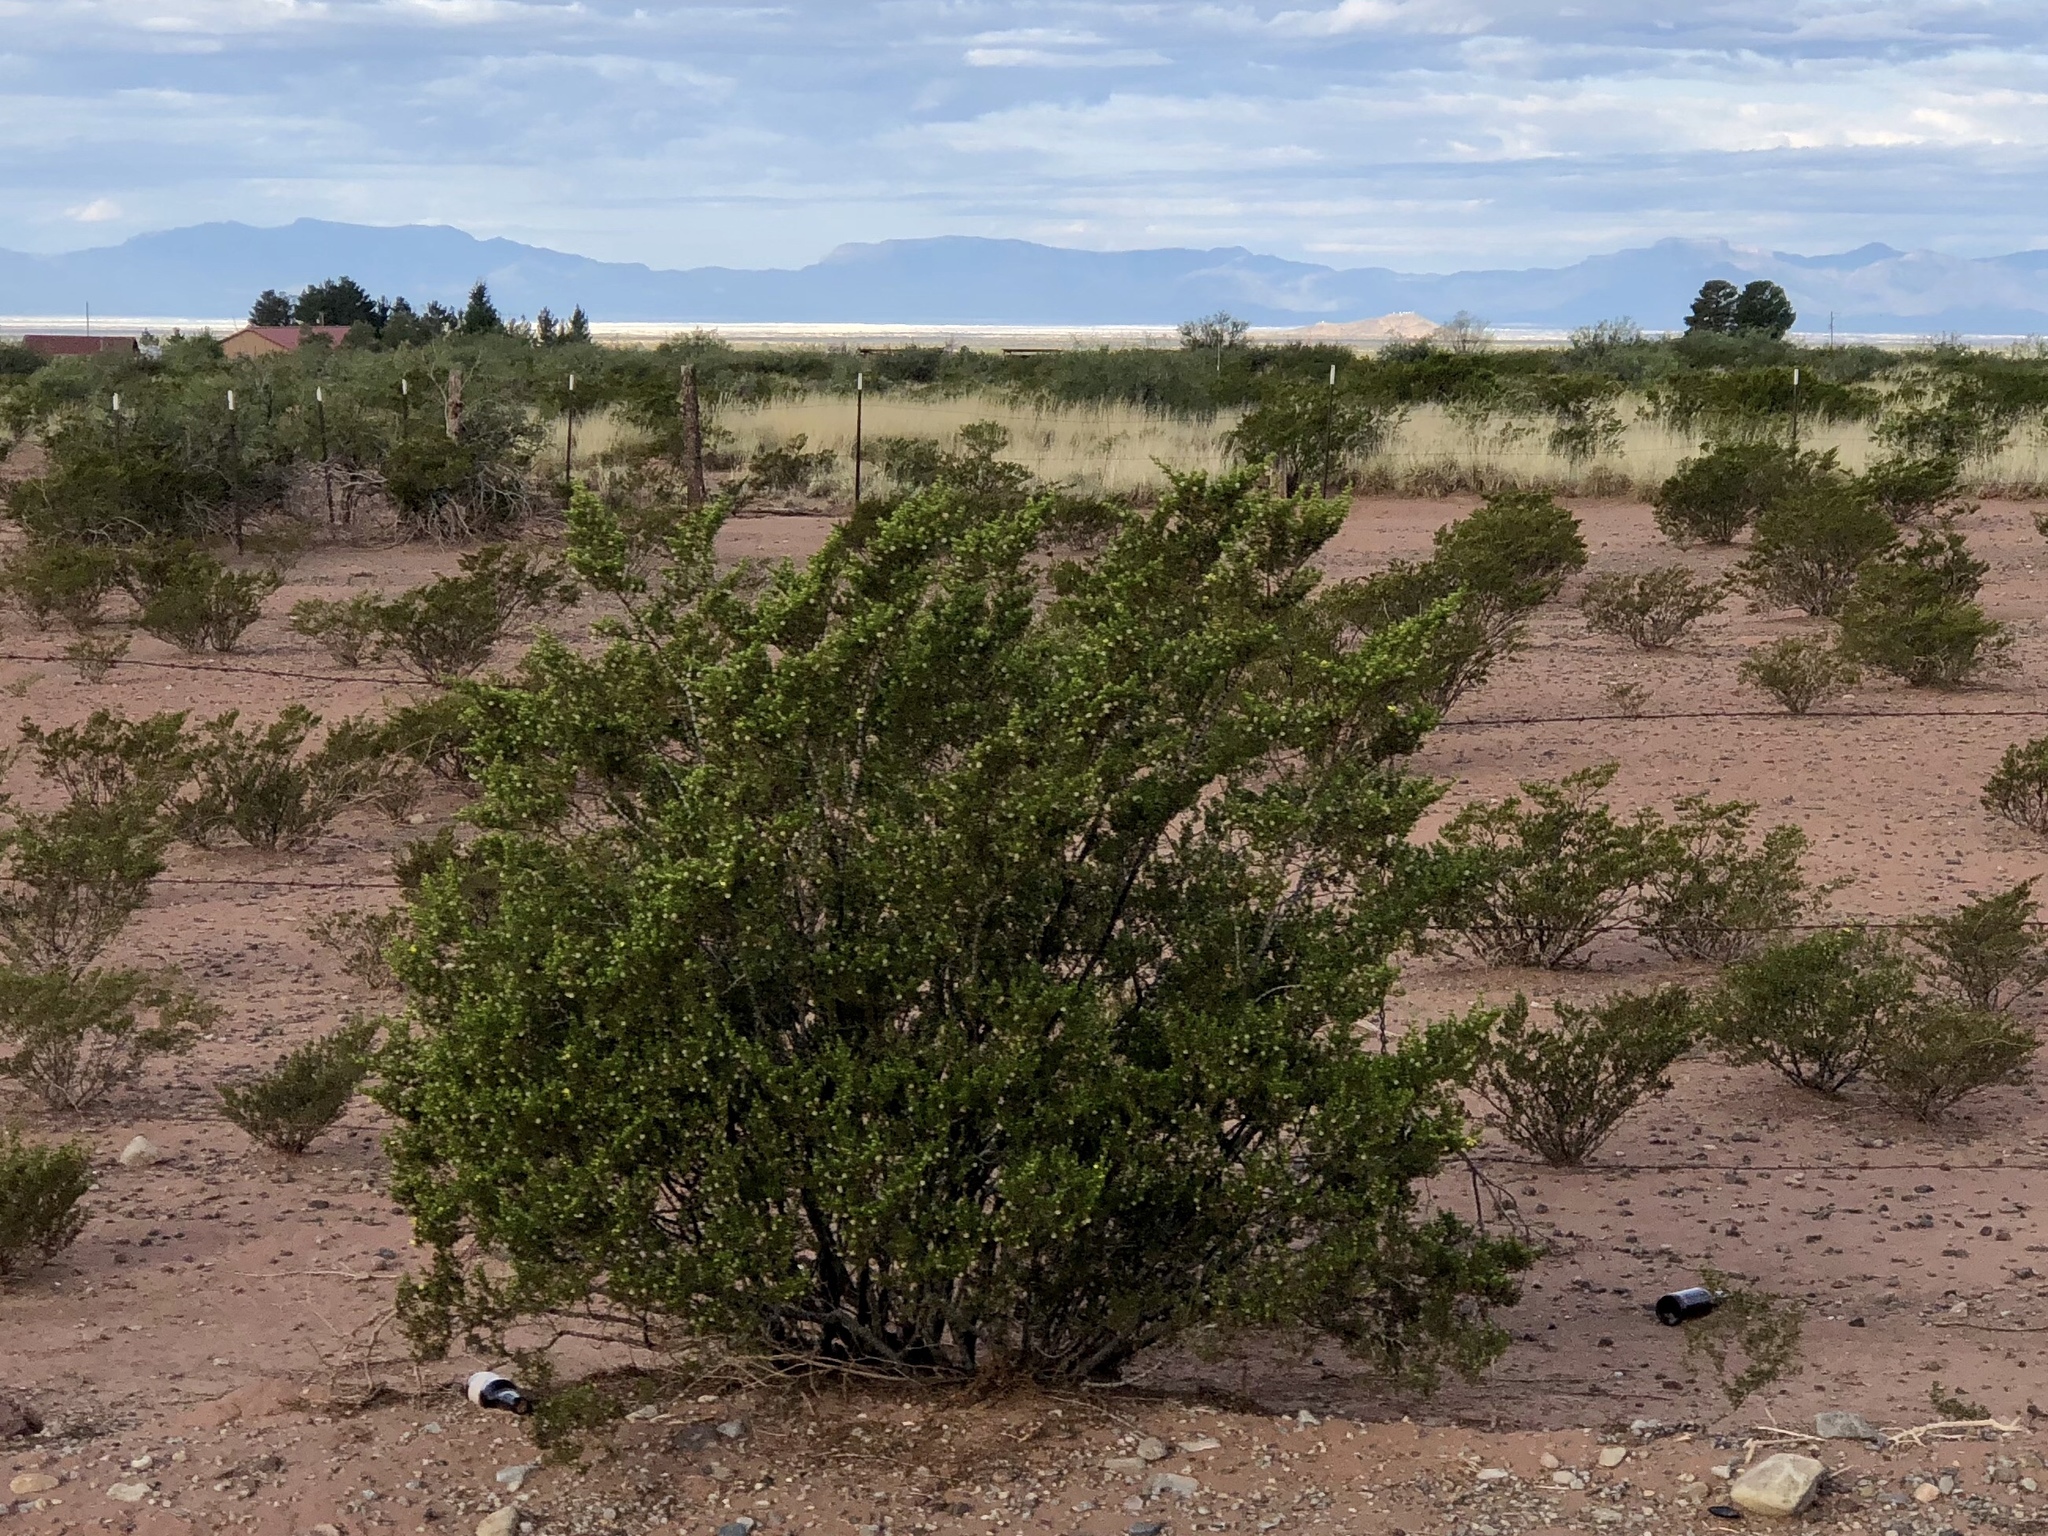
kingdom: Plantae
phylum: Tracheophyta
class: Magnoliopsida
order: Zygophyllales
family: Zygophyllaceae
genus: Larrea
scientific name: Larrea tridentata
